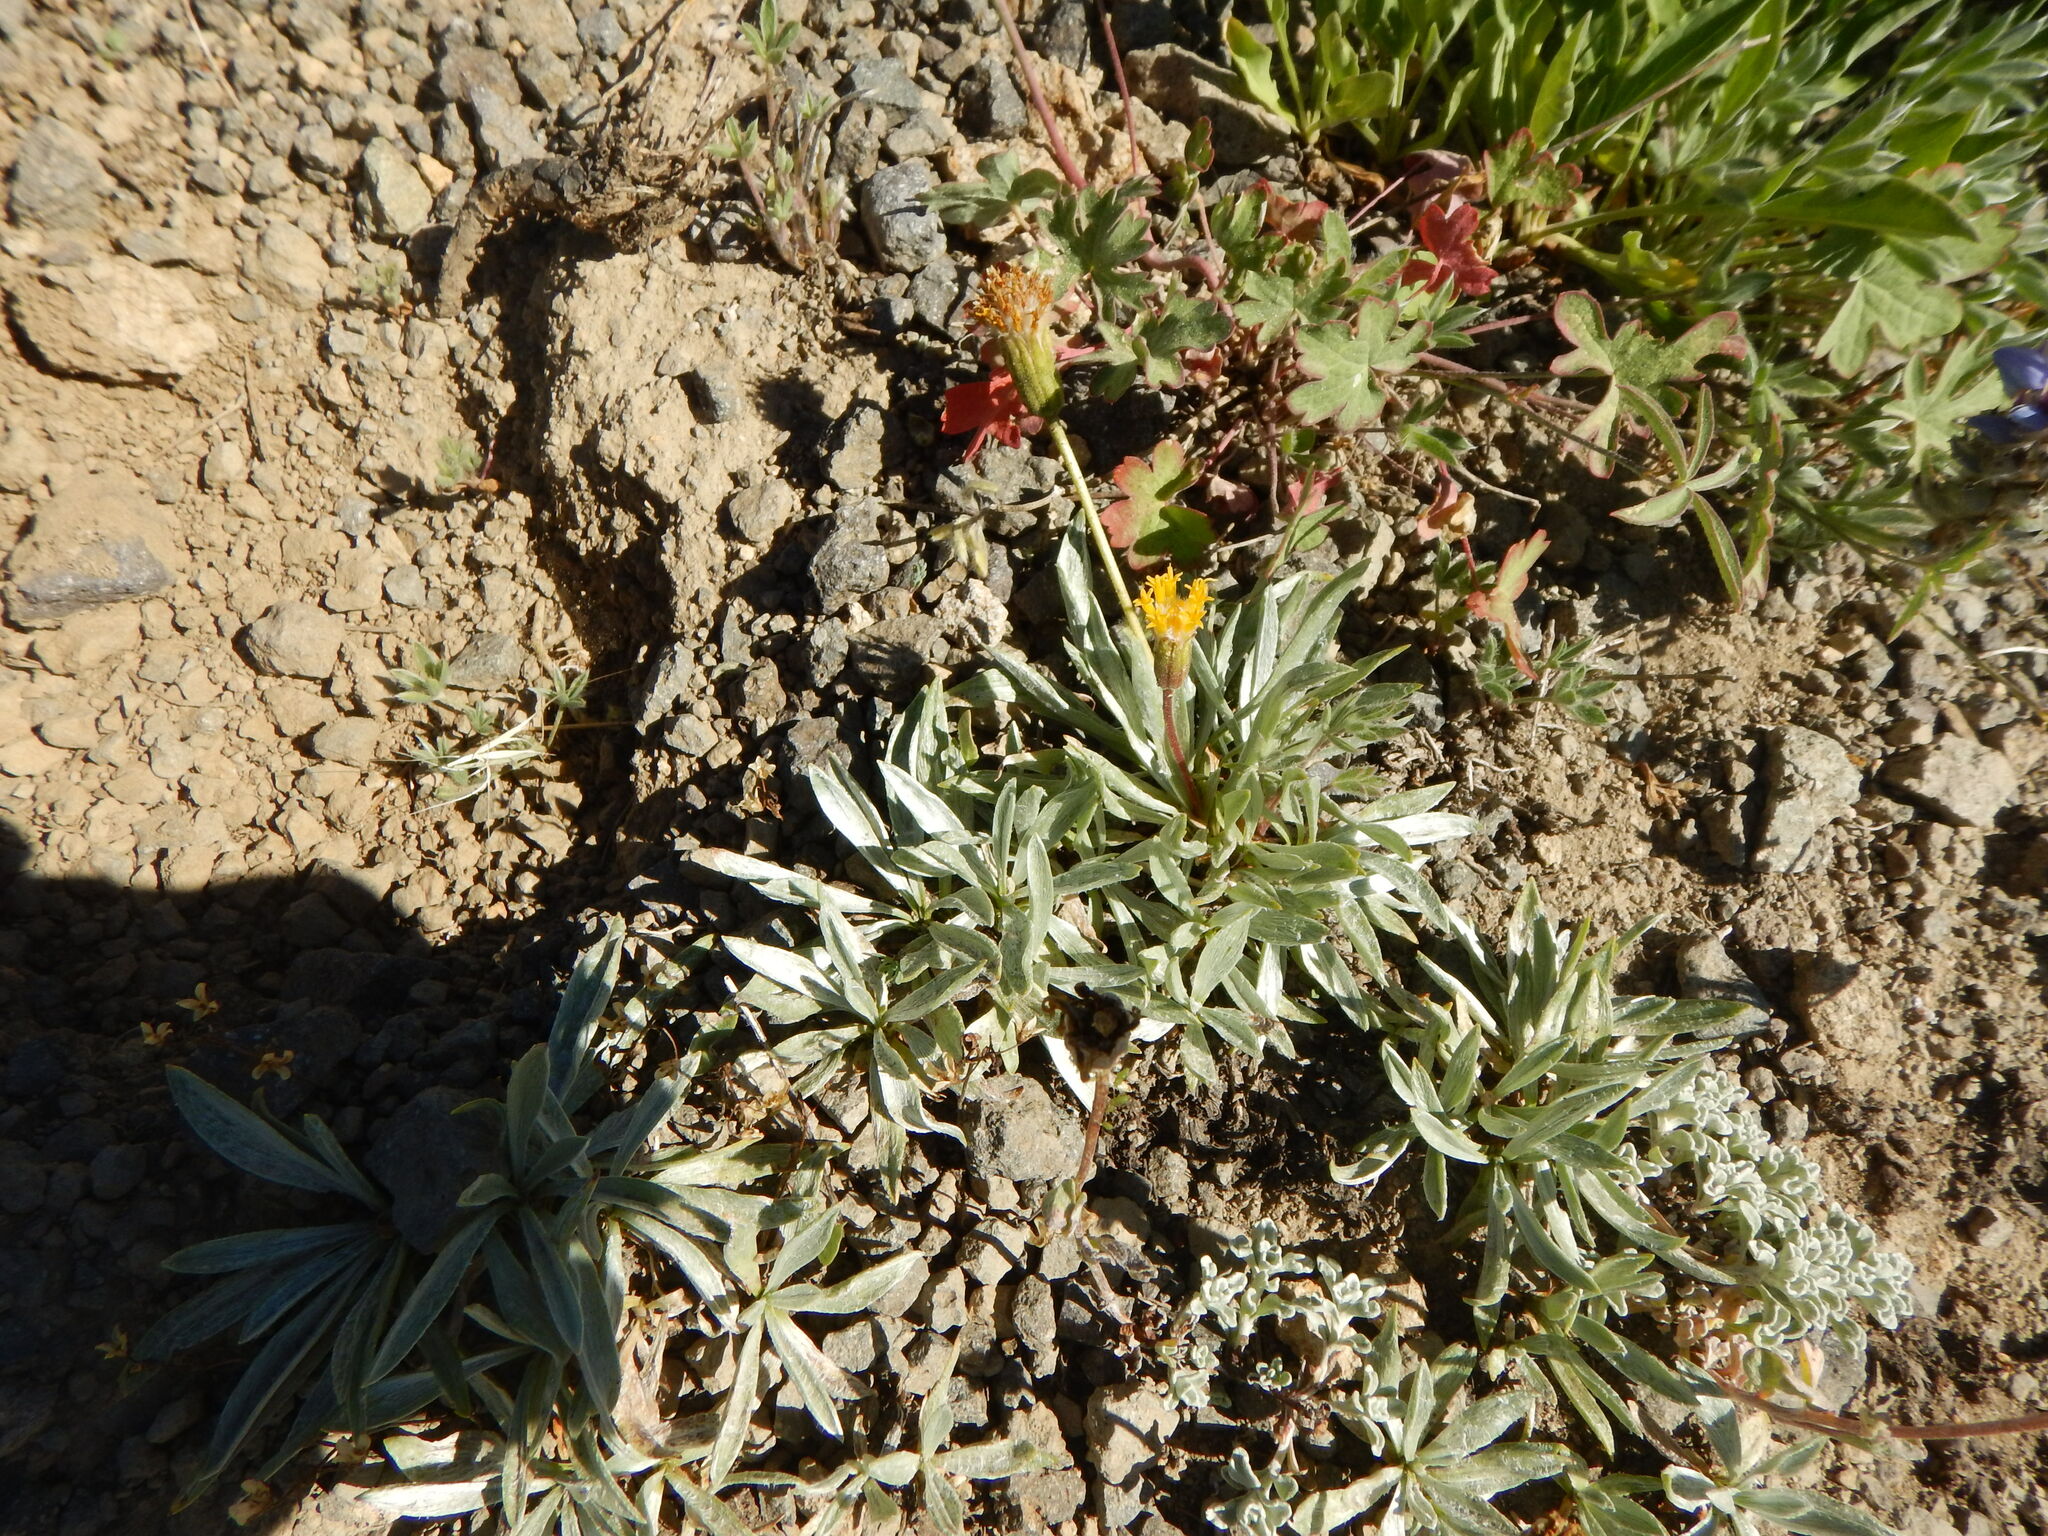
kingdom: Plantae
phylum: Tracheophyta
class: Magnoliopsida
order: Asterales
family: Asteraceae
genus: Raillardella
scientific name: Raillardella argentea
